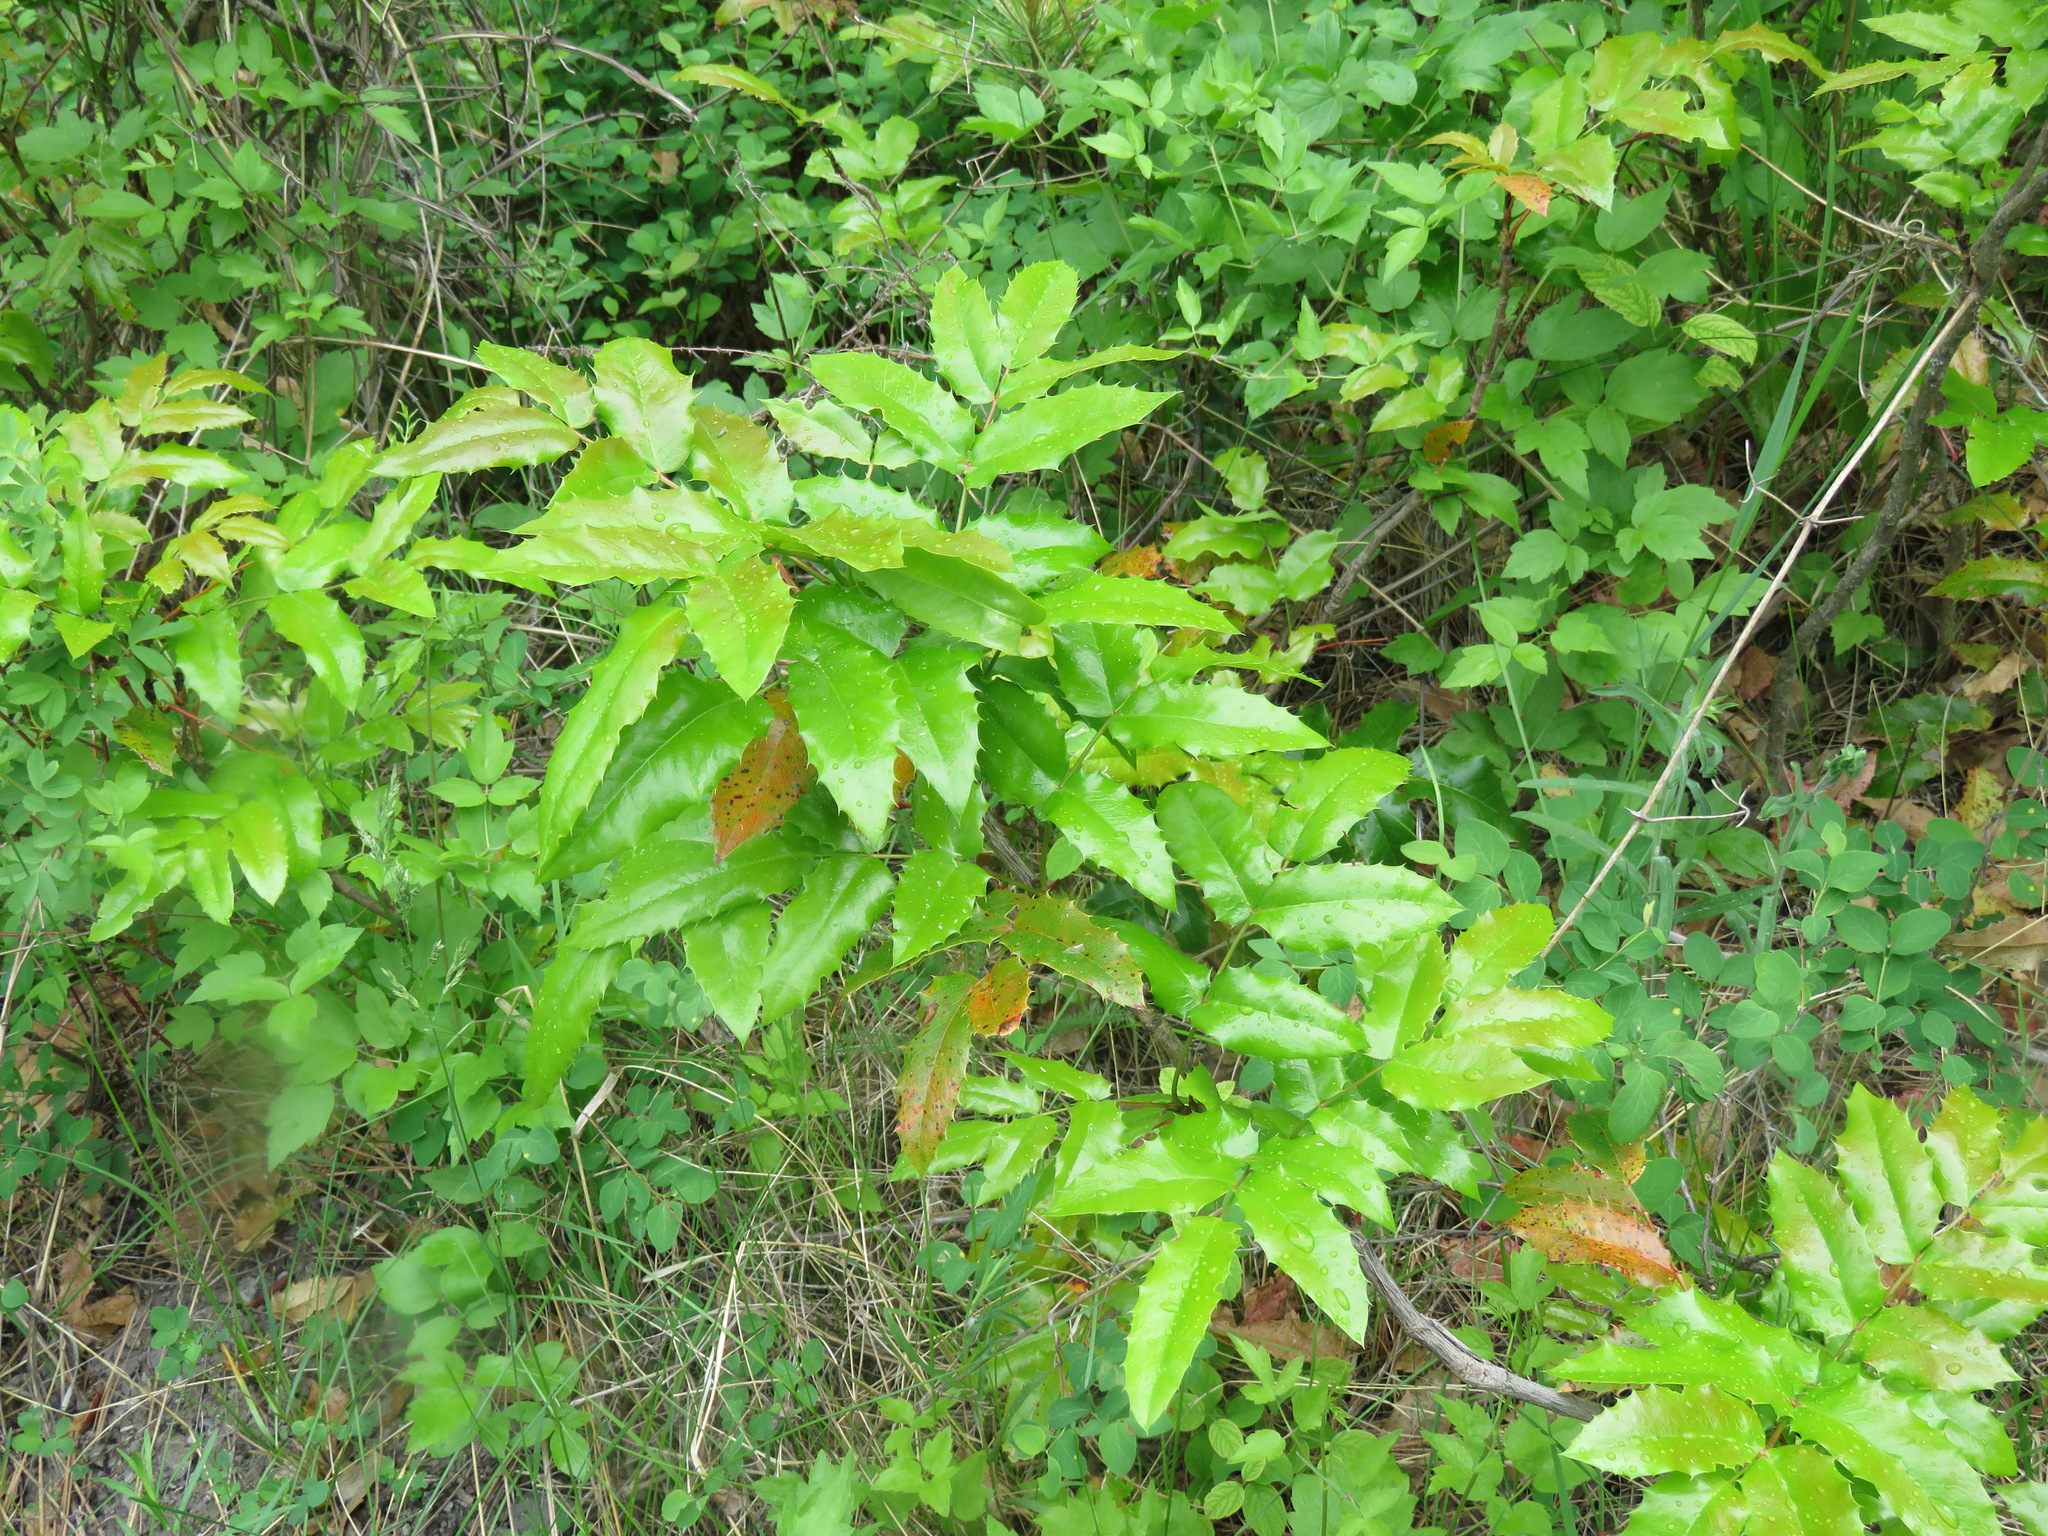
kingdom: Plantae
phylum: Tracheophyta
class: Magnoliopsida
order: Ranunculales
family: Berberidaceae
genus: Mahonia
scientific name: Mahonia aquifolium
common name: Oregon-grape
